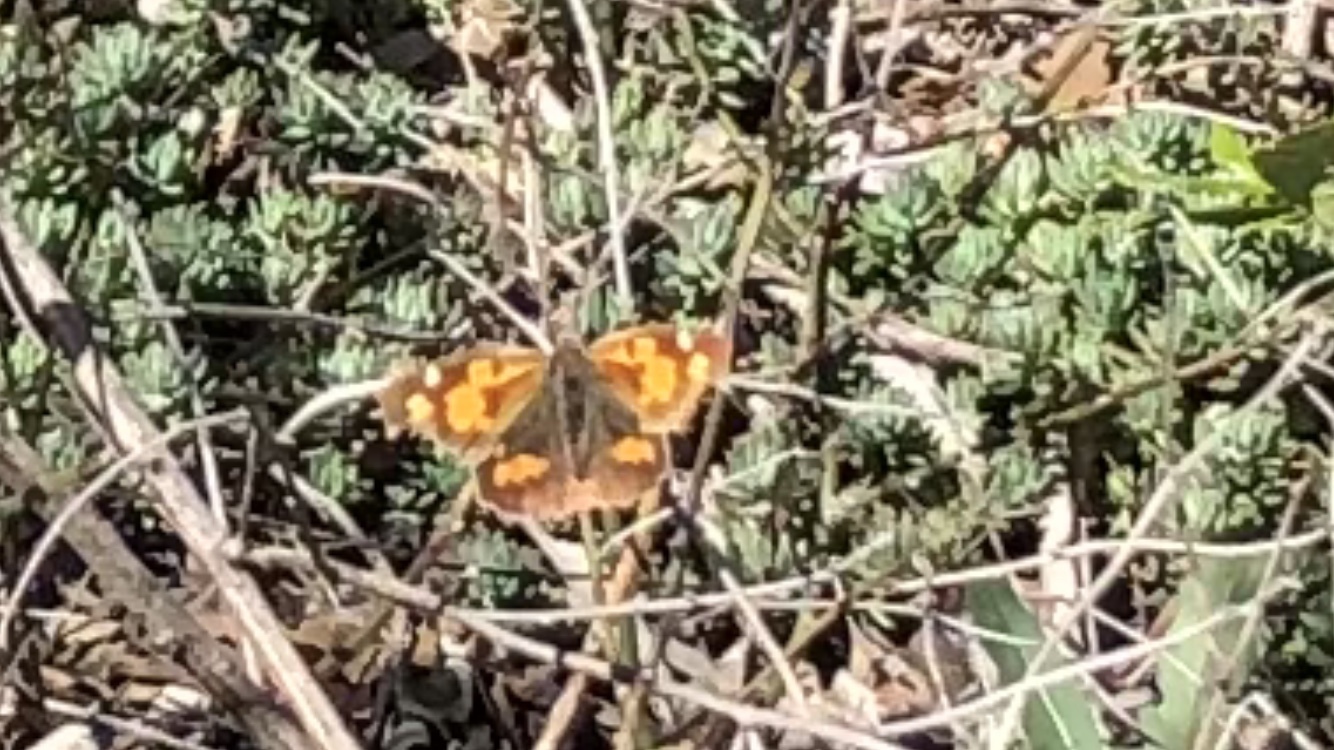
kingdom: Animalia
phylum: Arthropoda
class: Insecta
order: Lepidoptera
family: Nymphalidae
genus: Libythea
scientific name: Libythea celtis
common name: Nettle-tree butterfly
